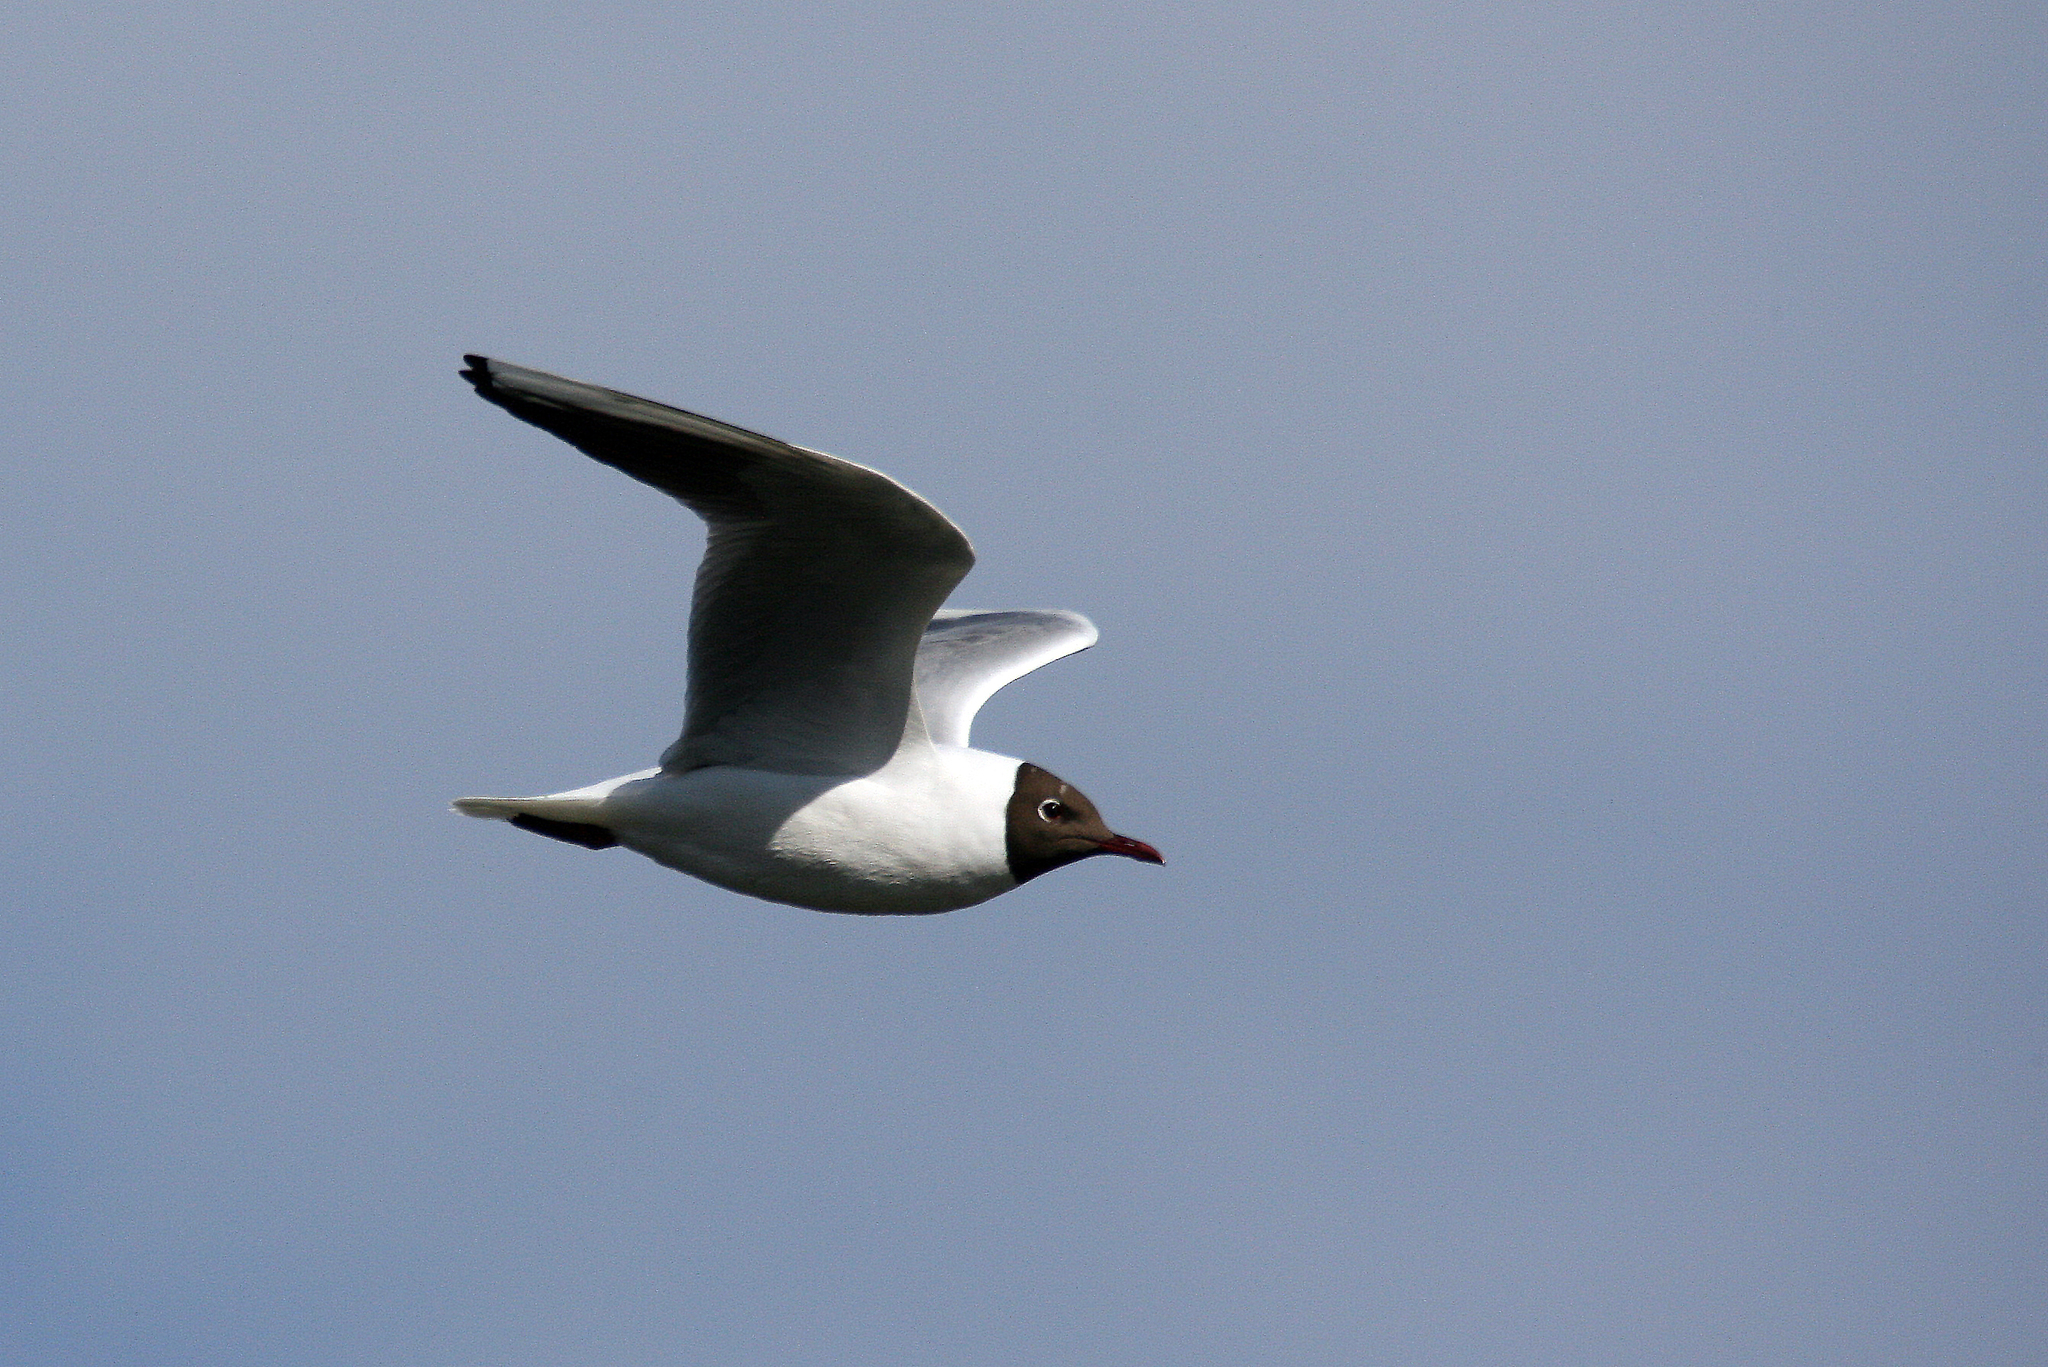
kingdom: Animalia
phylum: Chordata
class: Aves
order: Charadriiformes
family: Laridae
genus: Chroicocephalus
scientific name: Chroicocephalus ridibundus
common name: Black-headed gull
